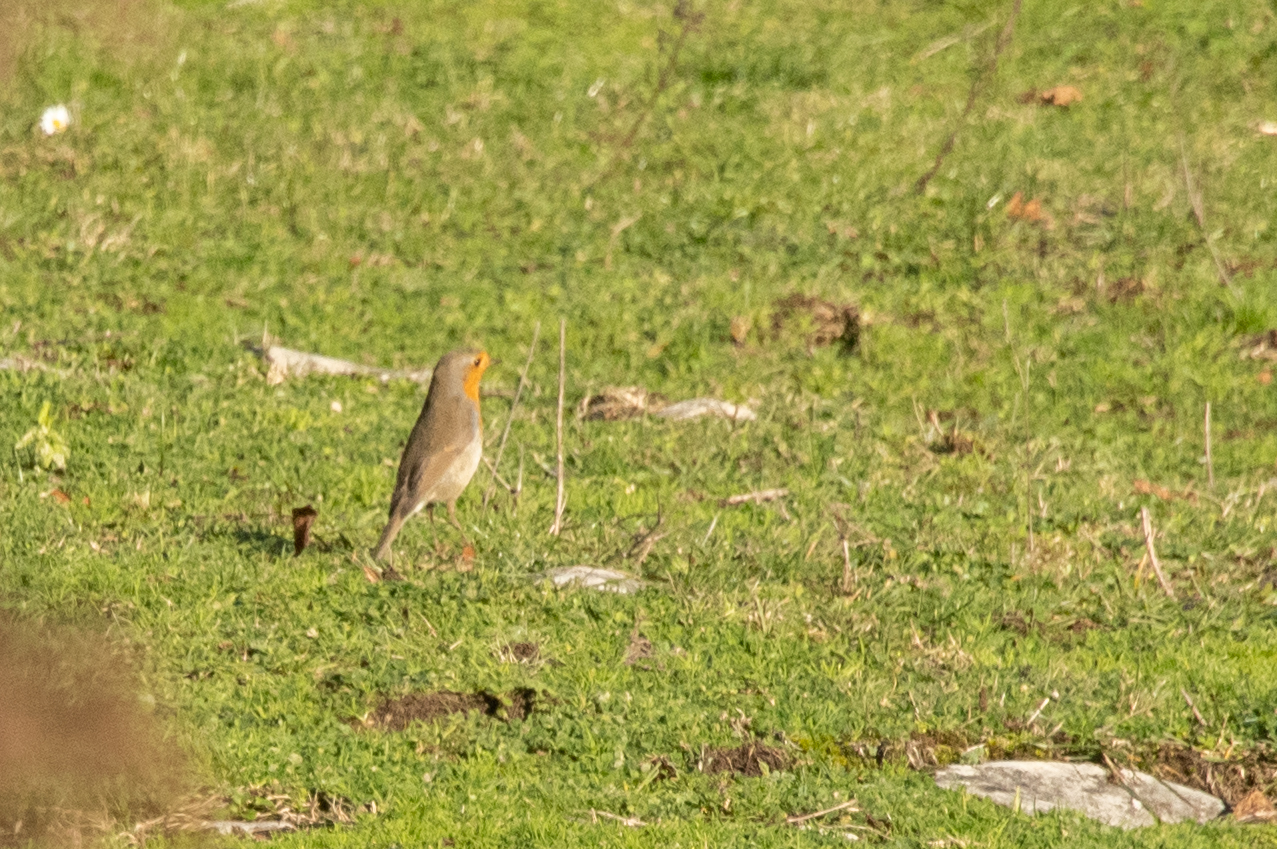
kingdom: Animalia
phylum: Chordata
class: Aves
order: Passeriformes
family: Muscicapidae
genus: Erithacus
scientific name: Erithacus rubecula
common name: European robin
